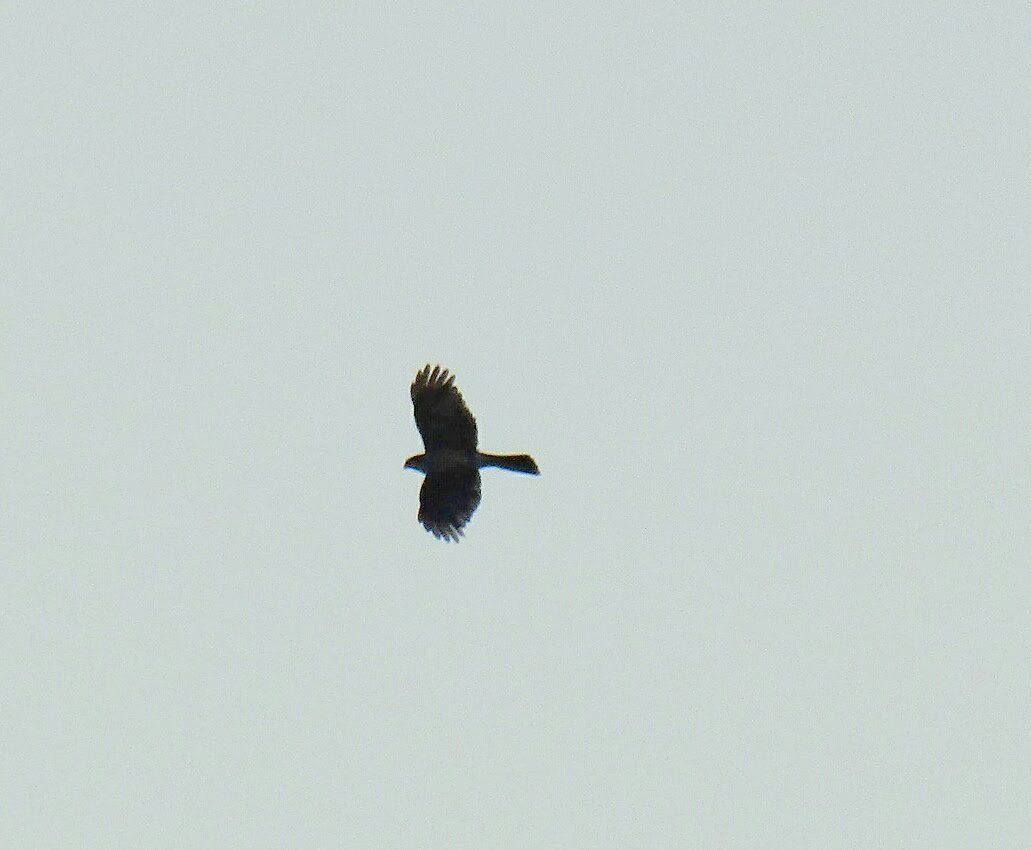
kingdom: Animalia
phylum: Chordata
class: Aves
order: Accipitriformes
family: Accipitridae
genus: Accipiter
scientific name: Accipiter striatus
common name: Sharp-shinned hawk
